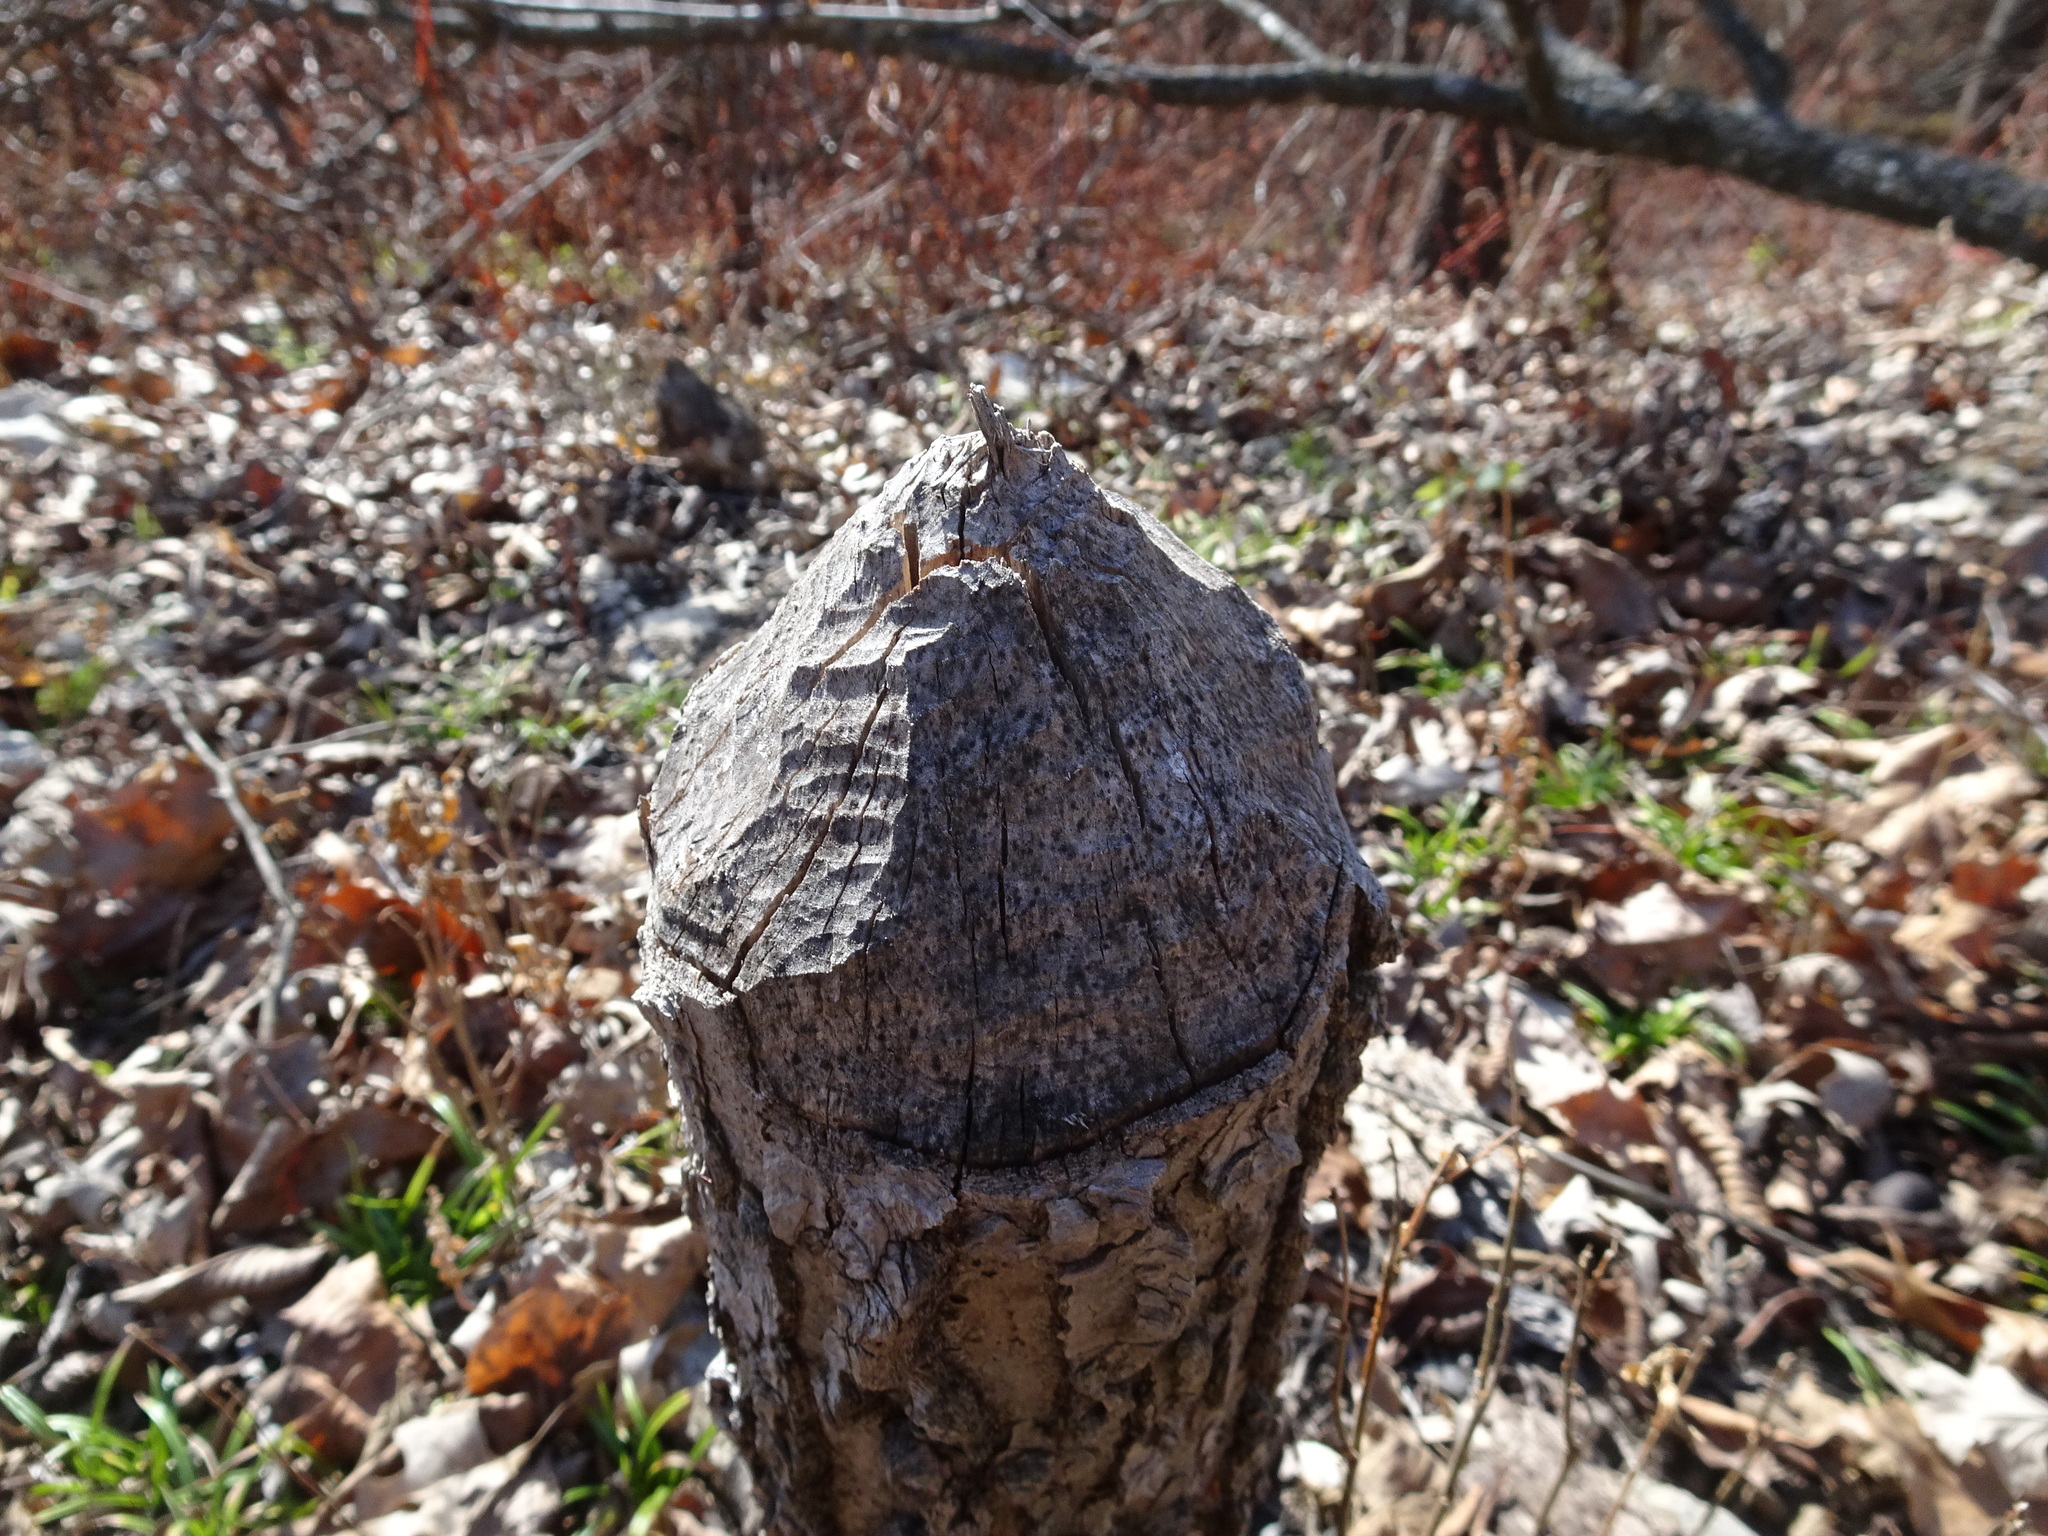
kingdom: Animalia
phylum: Chordata
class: Mammalia
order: Rodentia
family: Castoridae
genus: Castor
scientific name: Castor canadensis
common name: American beaver
